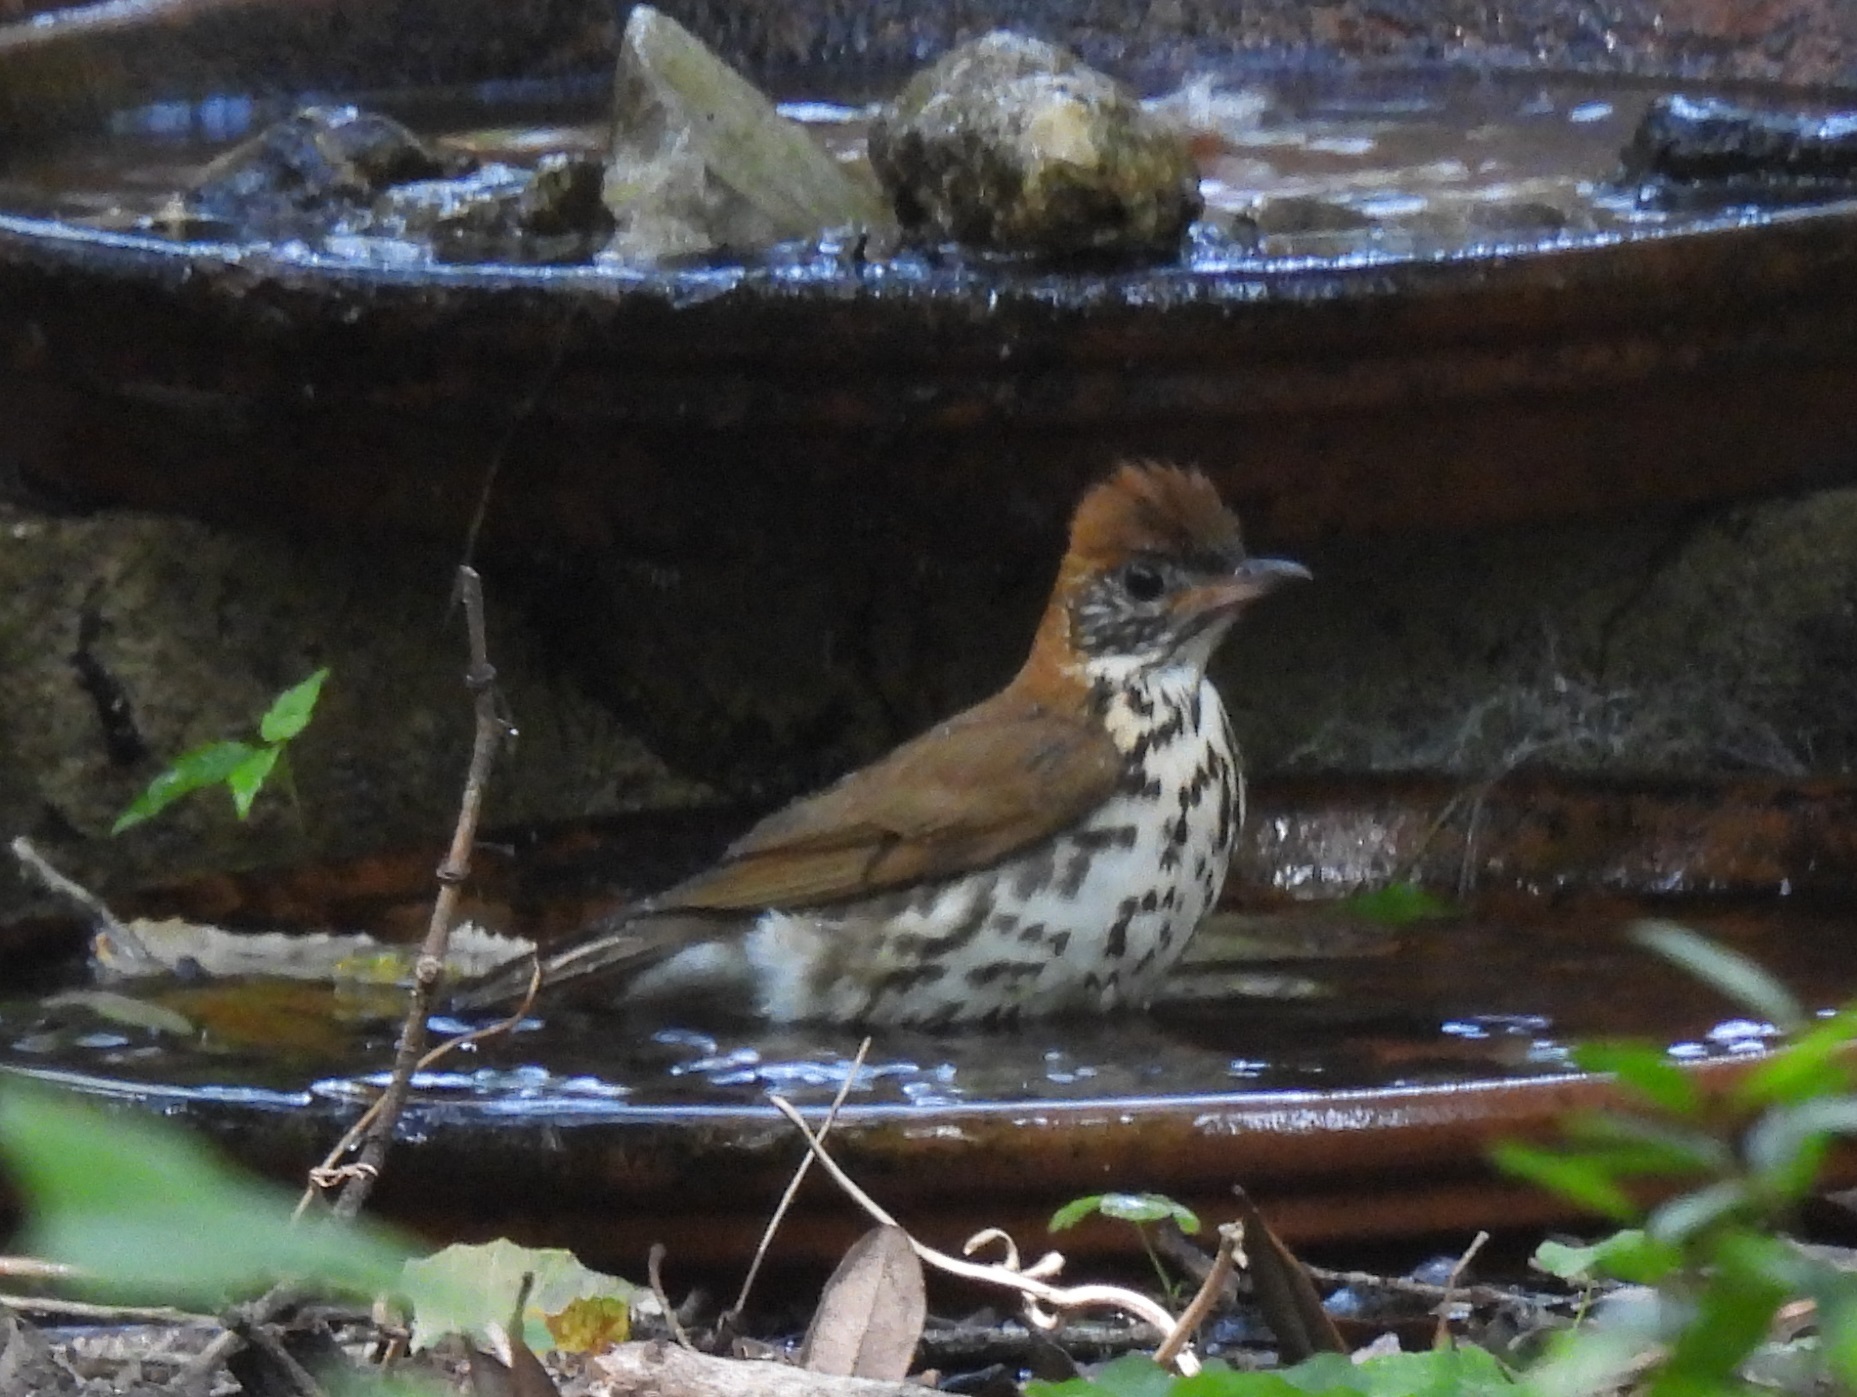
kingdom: Animalia
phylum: Chordata
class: Aves
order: Passeriformes
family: Turdidae
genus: Hylocichla
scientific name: Hylocichla mustelina
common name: Wood thrush
